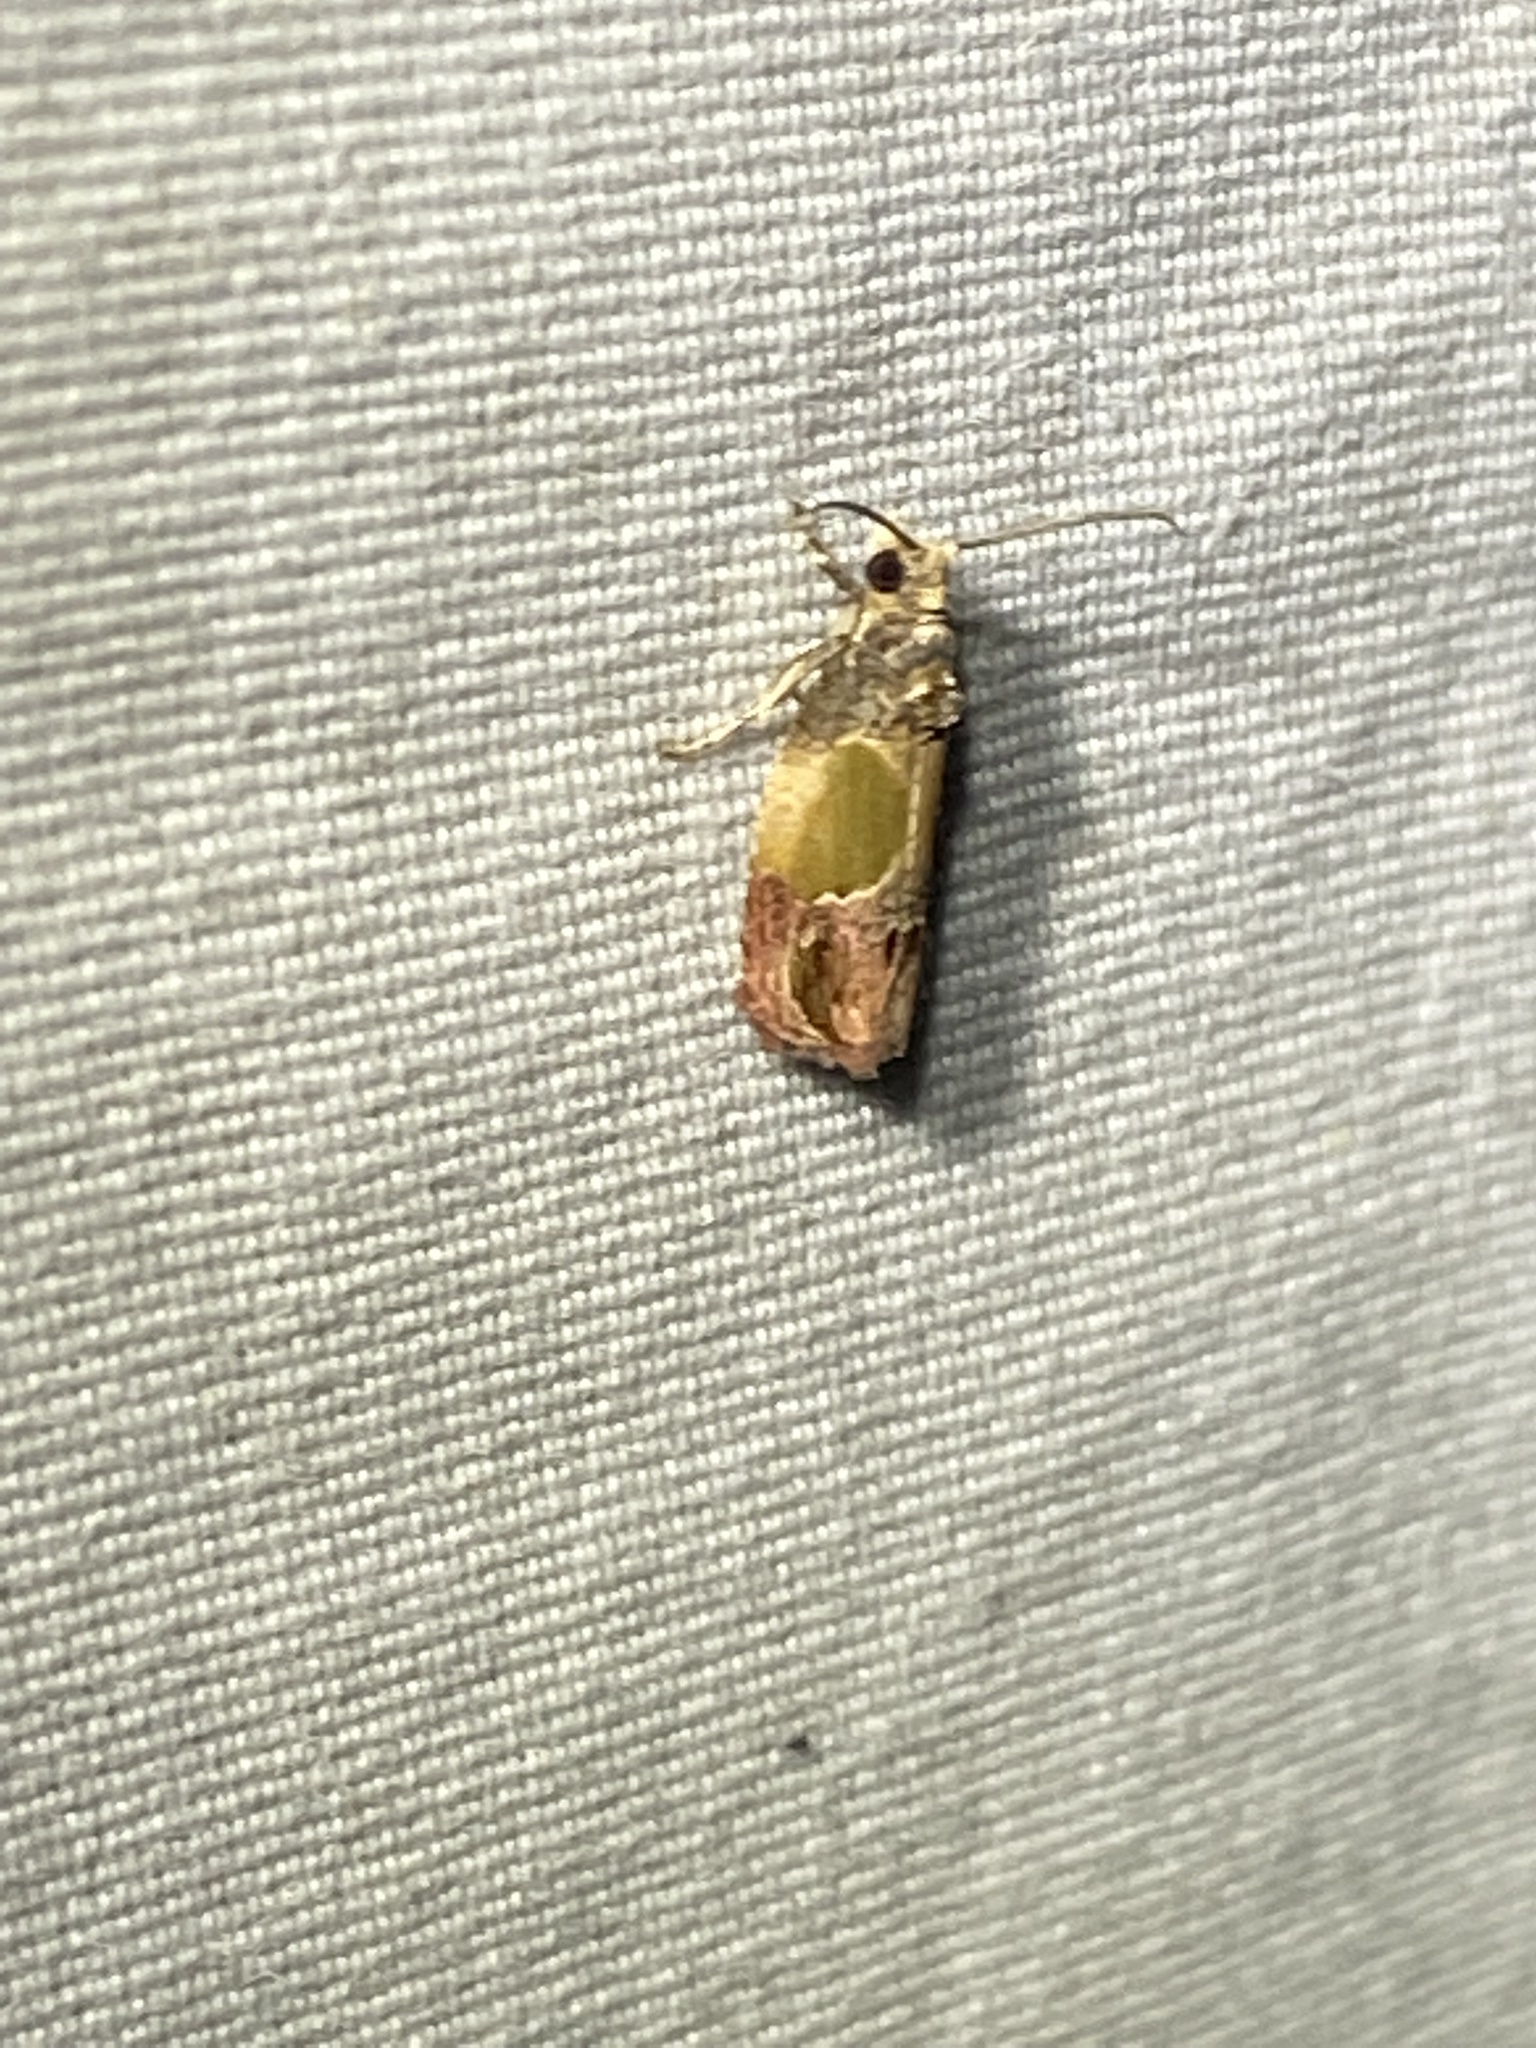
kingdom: Animalia
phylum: Arthropoda
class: Insecta
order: Lepidoptera
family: Tortricidae
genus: Eumarozia
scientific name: Eumarozia malachitana
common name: Sculptured moth
